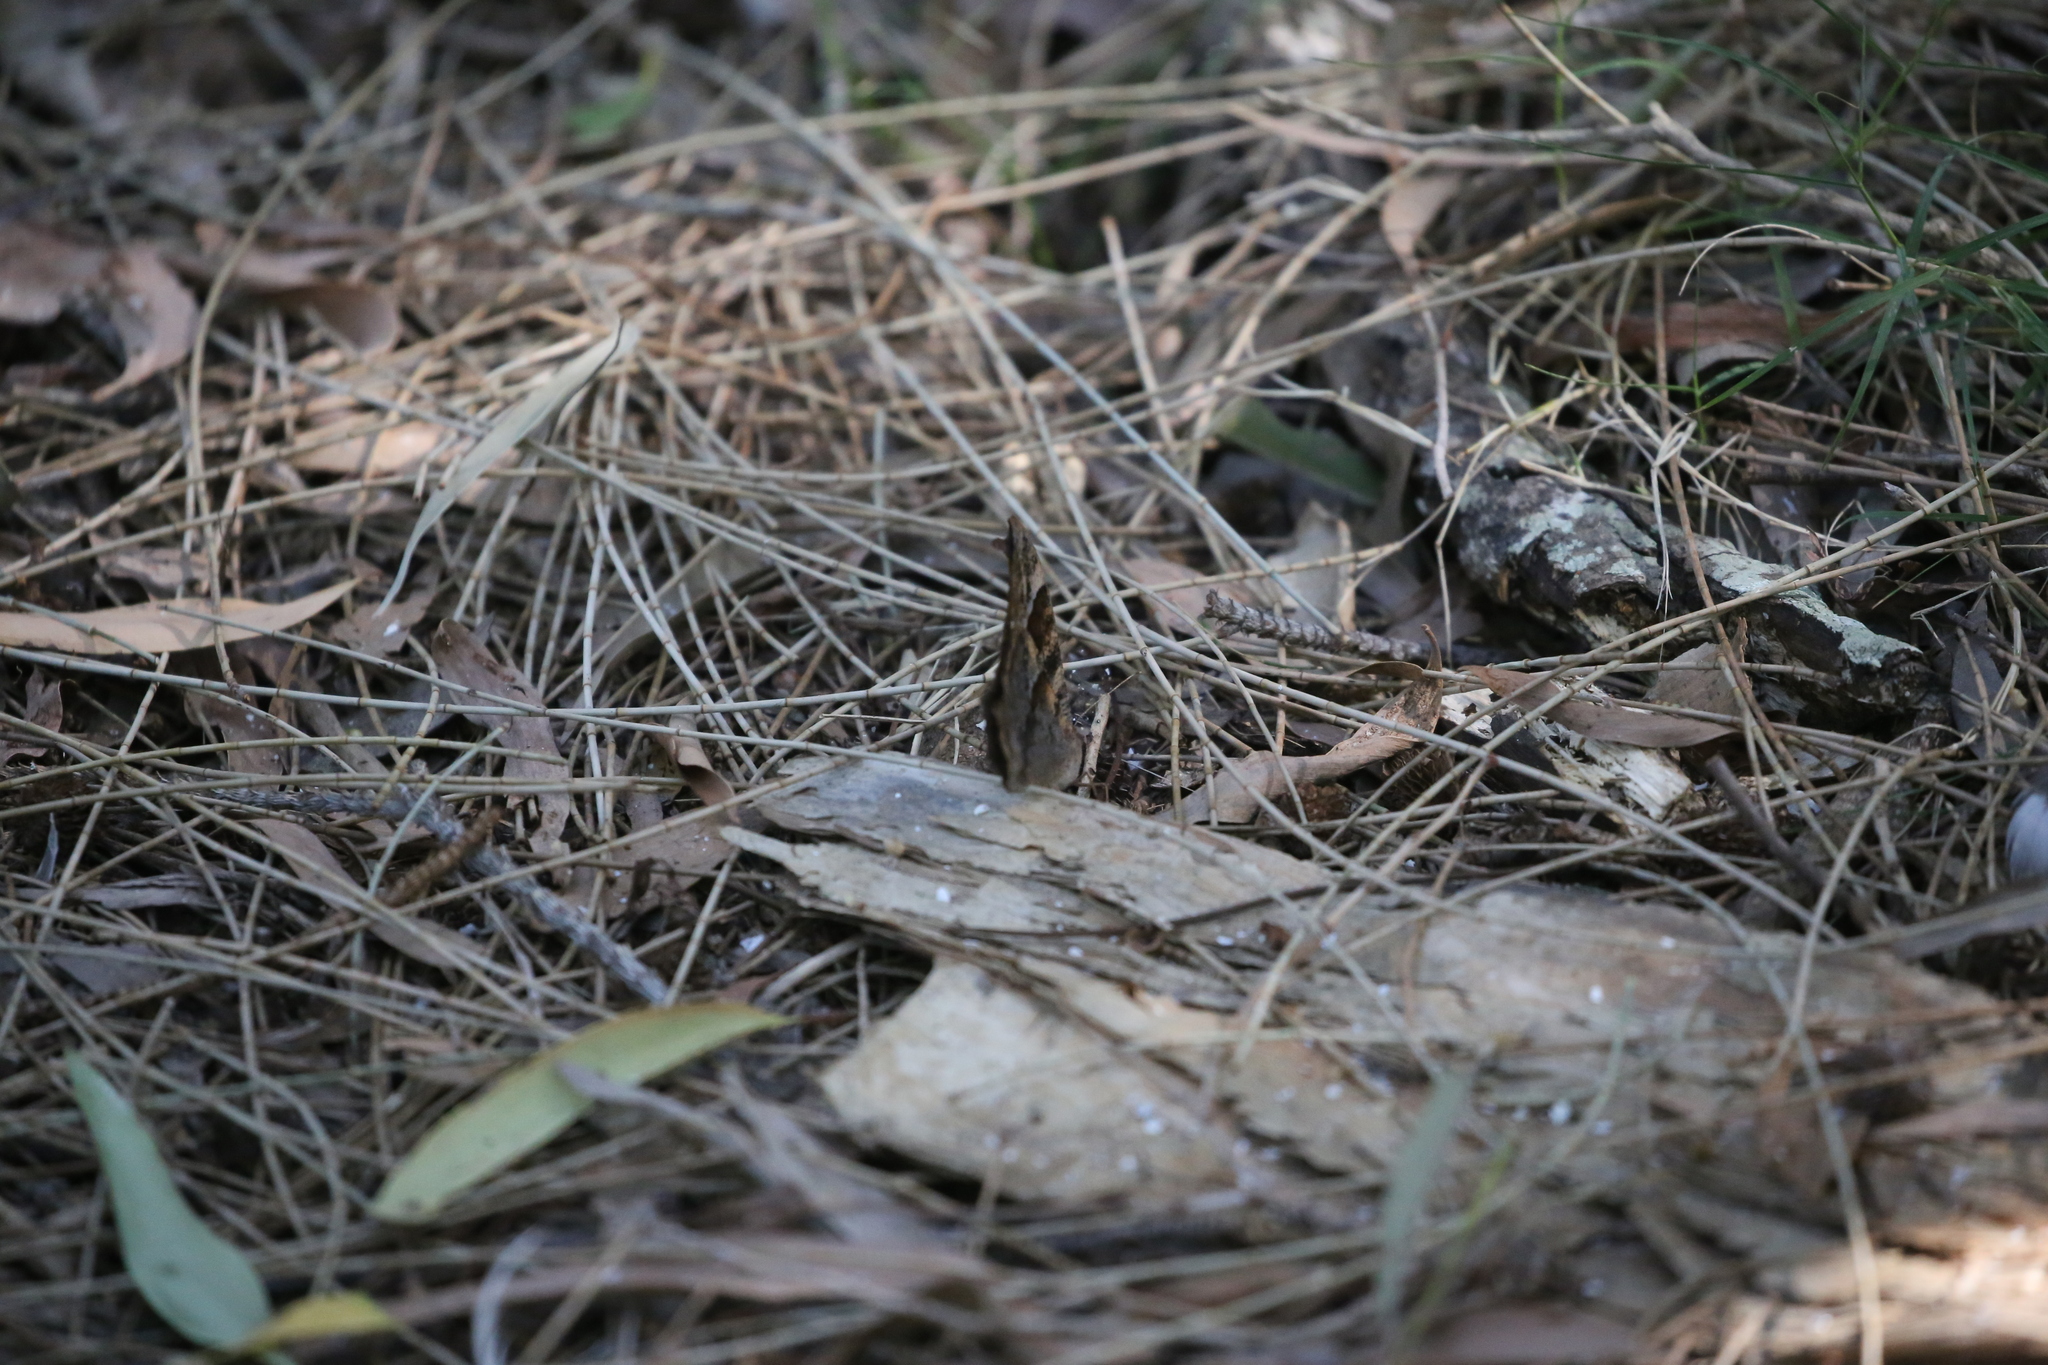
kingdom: Animalia
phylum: Arthropoda
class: Insecta
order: Lepidoptera
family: Nymphalidae
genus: Melanitis
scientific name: Melanitis leda
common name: Twilight brown
